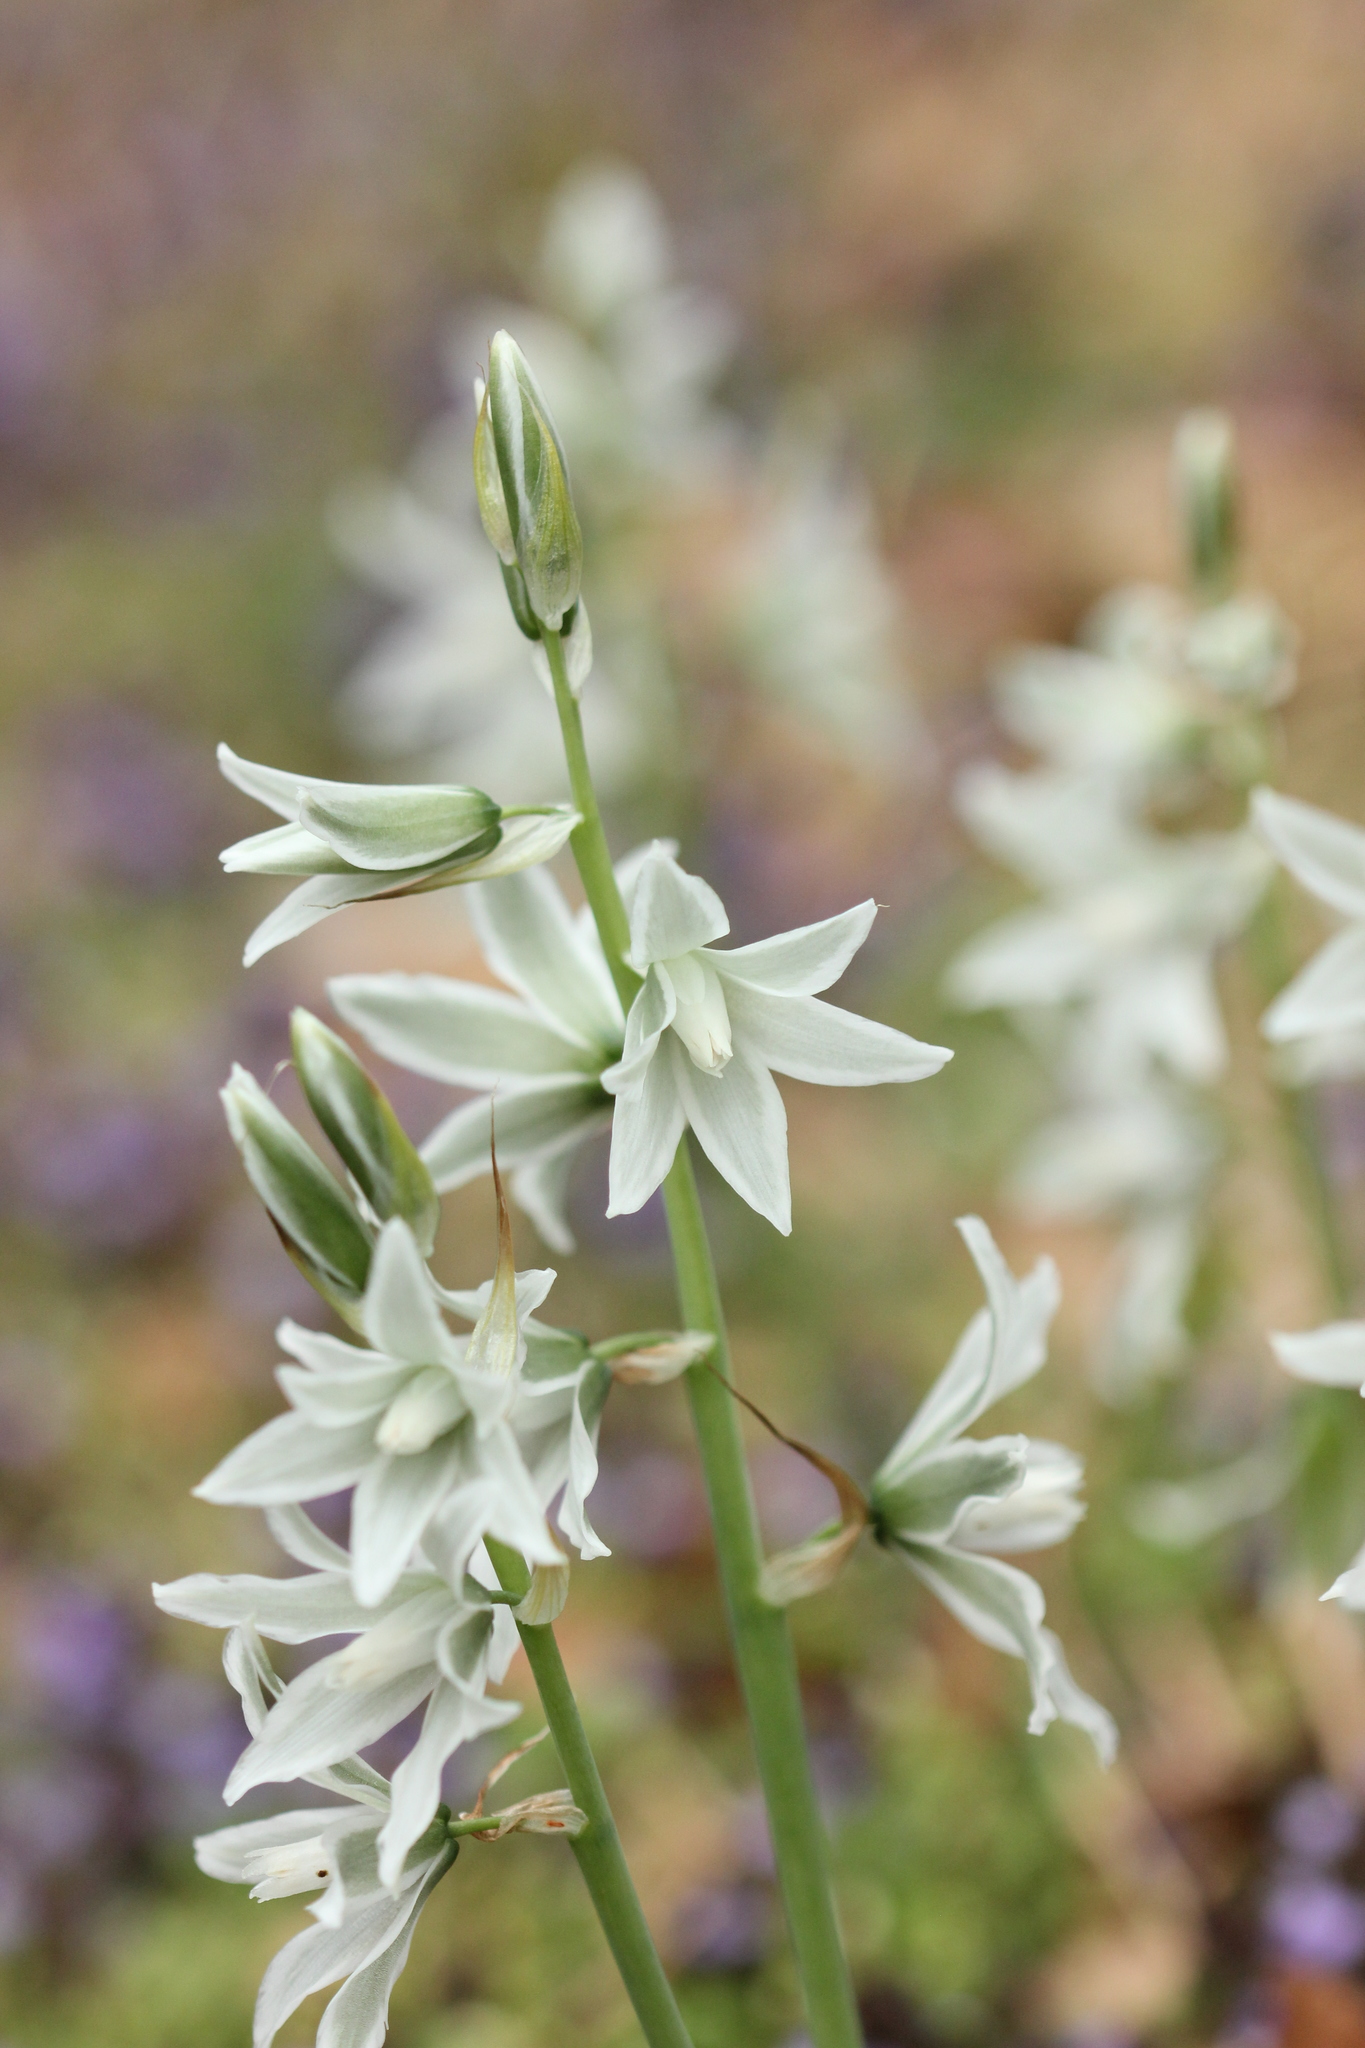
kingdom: Plantae
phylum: Tracheophyta
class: Liliopsida
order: Asparagales
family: Asparagaceae
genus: Ornithogalum
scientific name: Ornithogalum nutans
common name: Drooping star-of-bethlehem
